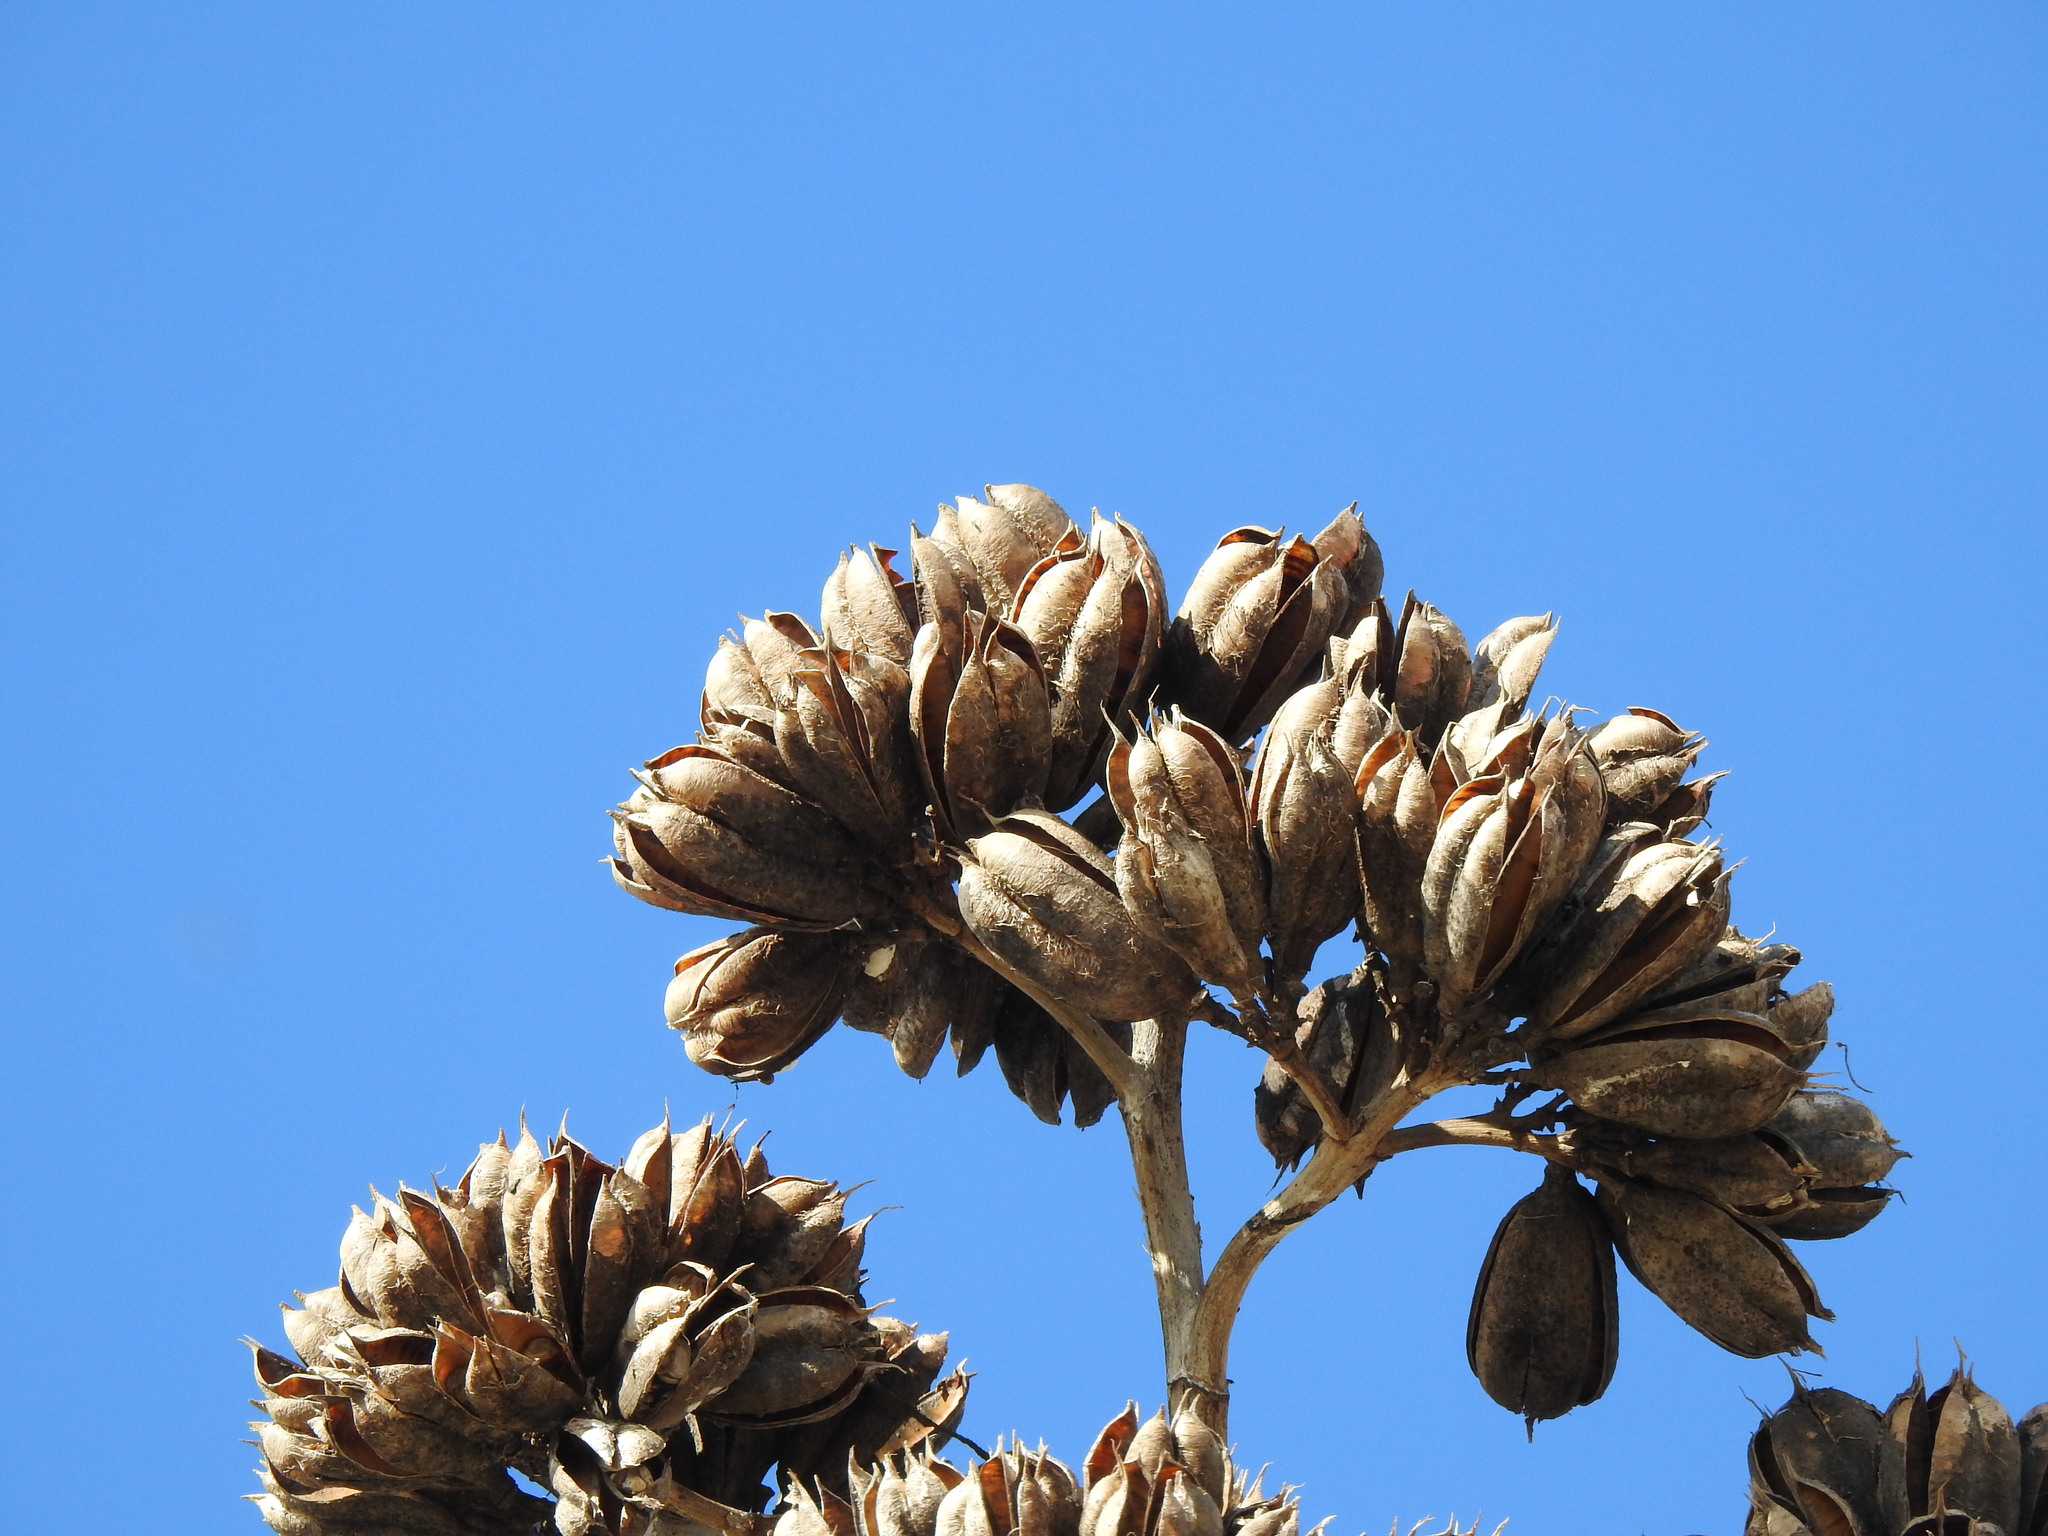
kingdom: Plantae
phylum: Tracheophyta
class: Liliopsida
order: Asparagales
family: Asparagaceae
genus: Agave
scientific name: Agave americana
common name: Centuryplant
